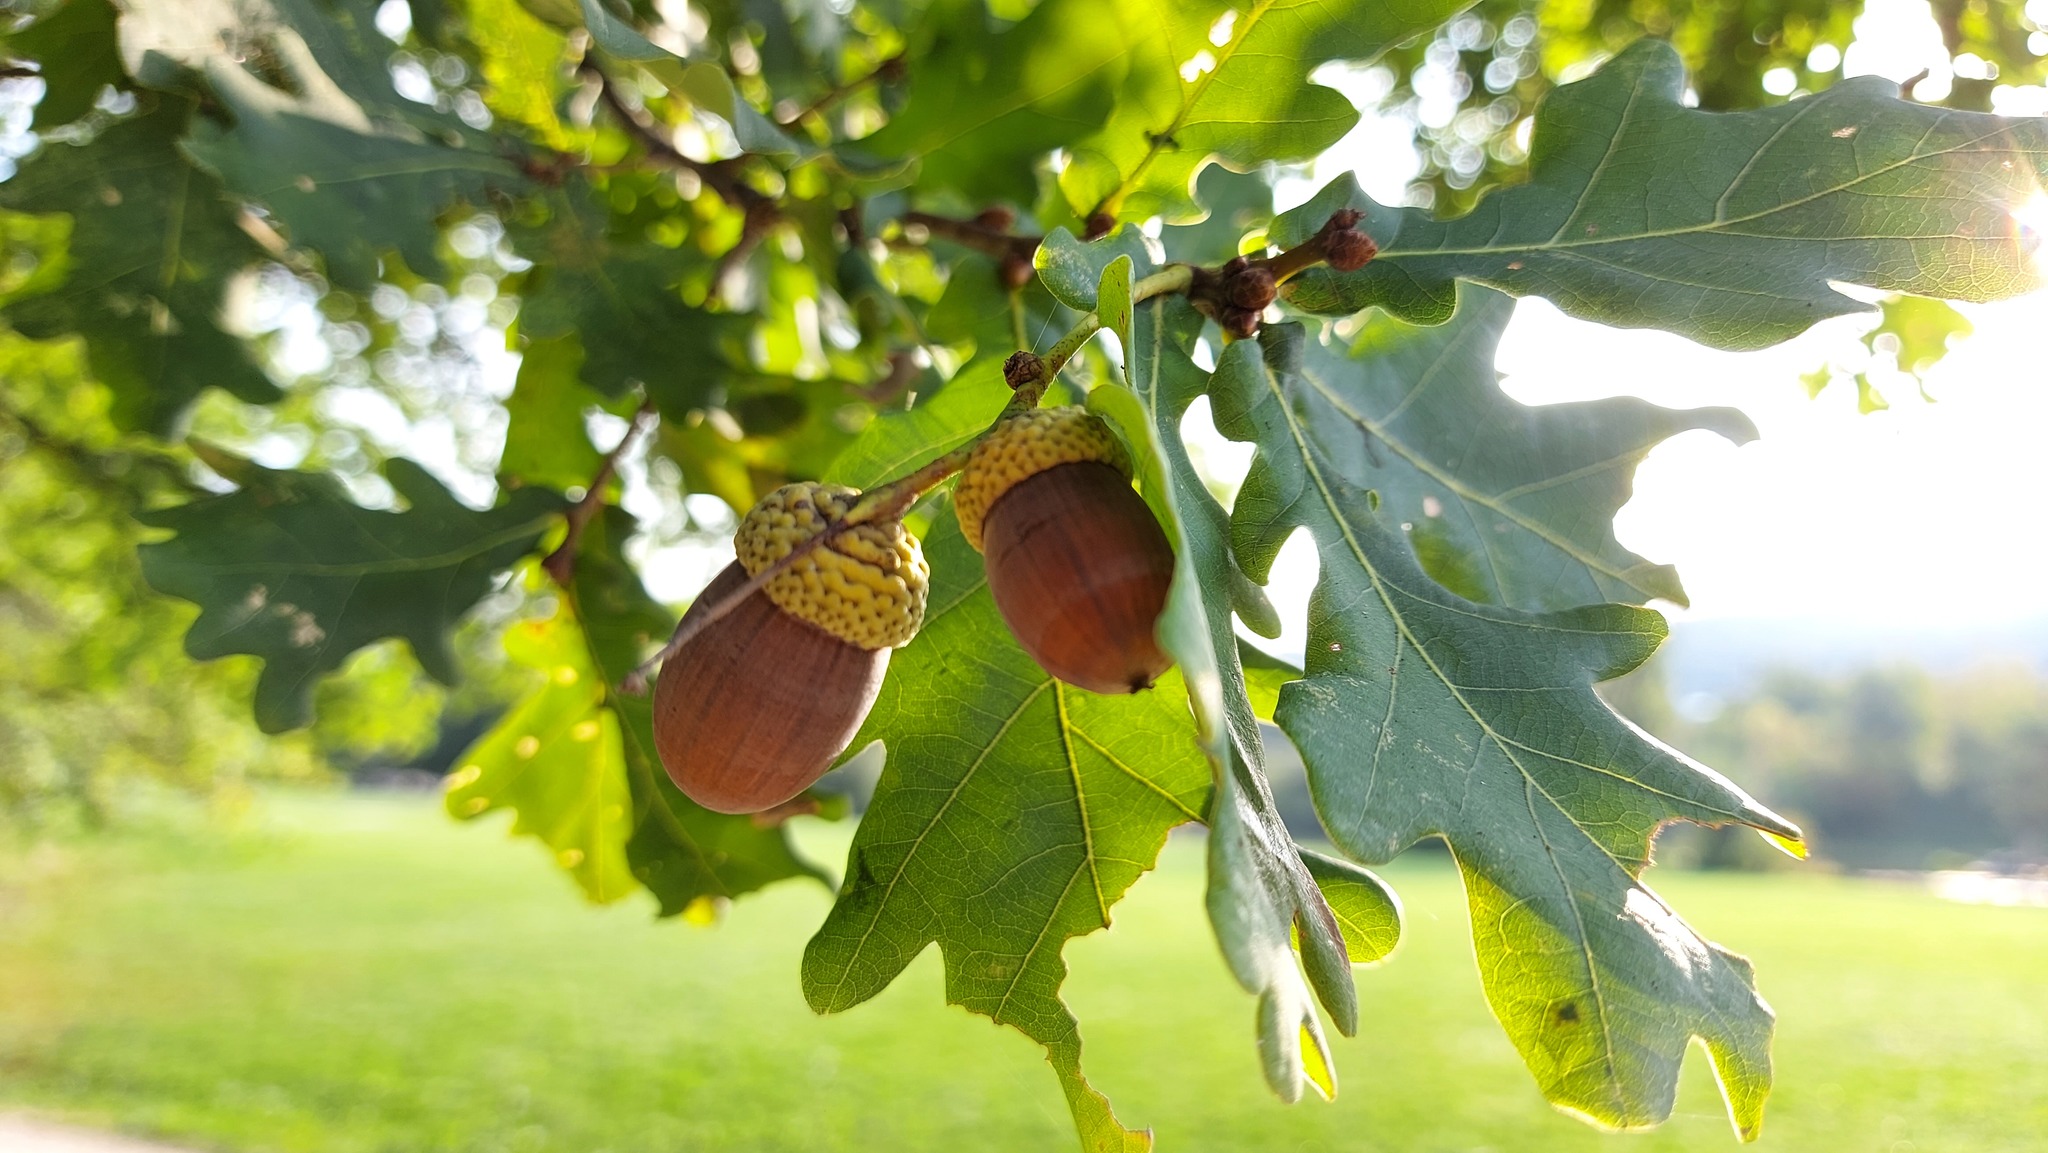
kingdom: Plantae
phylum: Tracheophyta
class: Magnoliopsida
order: Fagales
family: Fagaceae
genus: Quercus
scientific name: Quercus robur
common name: Pedunculate oak
